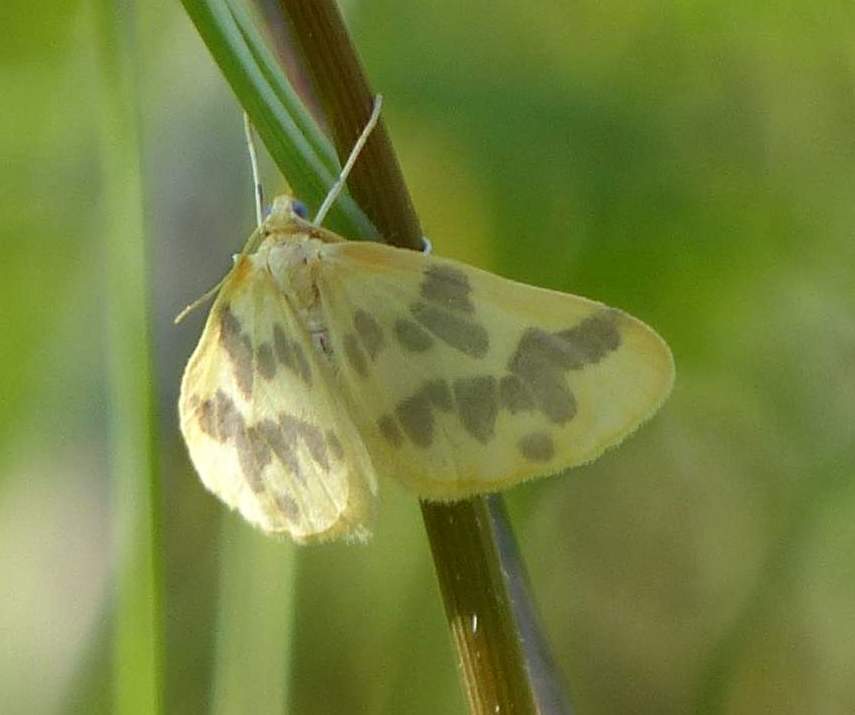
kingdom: Animalia
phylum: Arthropoda
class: Insecta
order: Lepidoptera
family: Geometridae
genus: Eubaphe
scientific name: Eubaphe mendica
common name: Beggar
